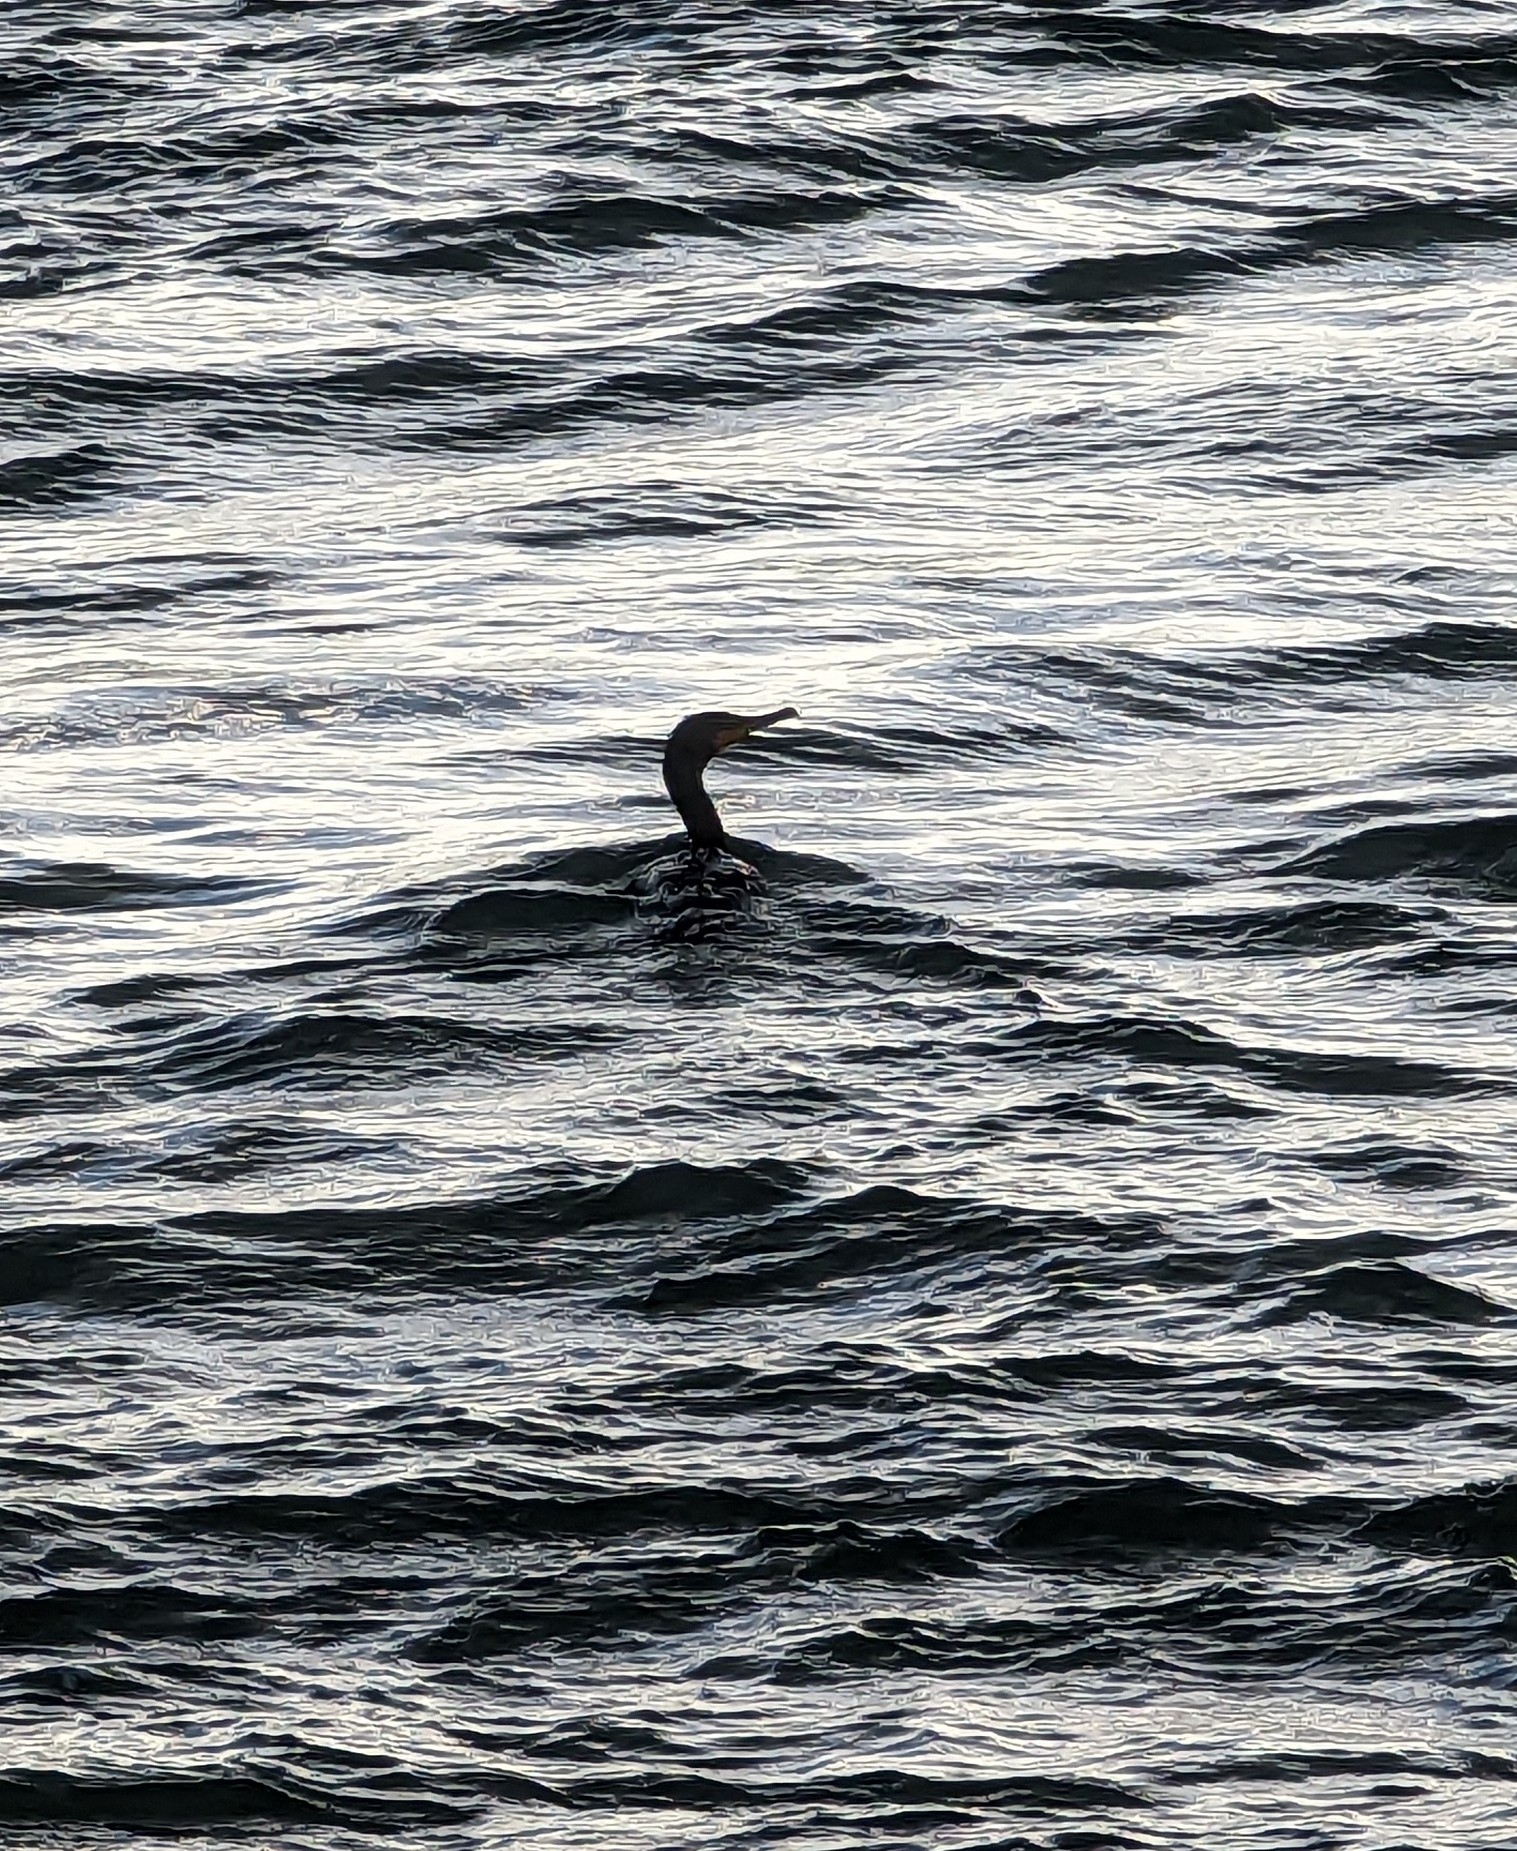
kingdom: Animalia
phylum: Chordata
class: Aves
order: Suliformes
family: Phalacrocoracidae
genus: Phalacrocorax
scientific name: Phalacrocorax auritus
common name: Double-crested cormorant
